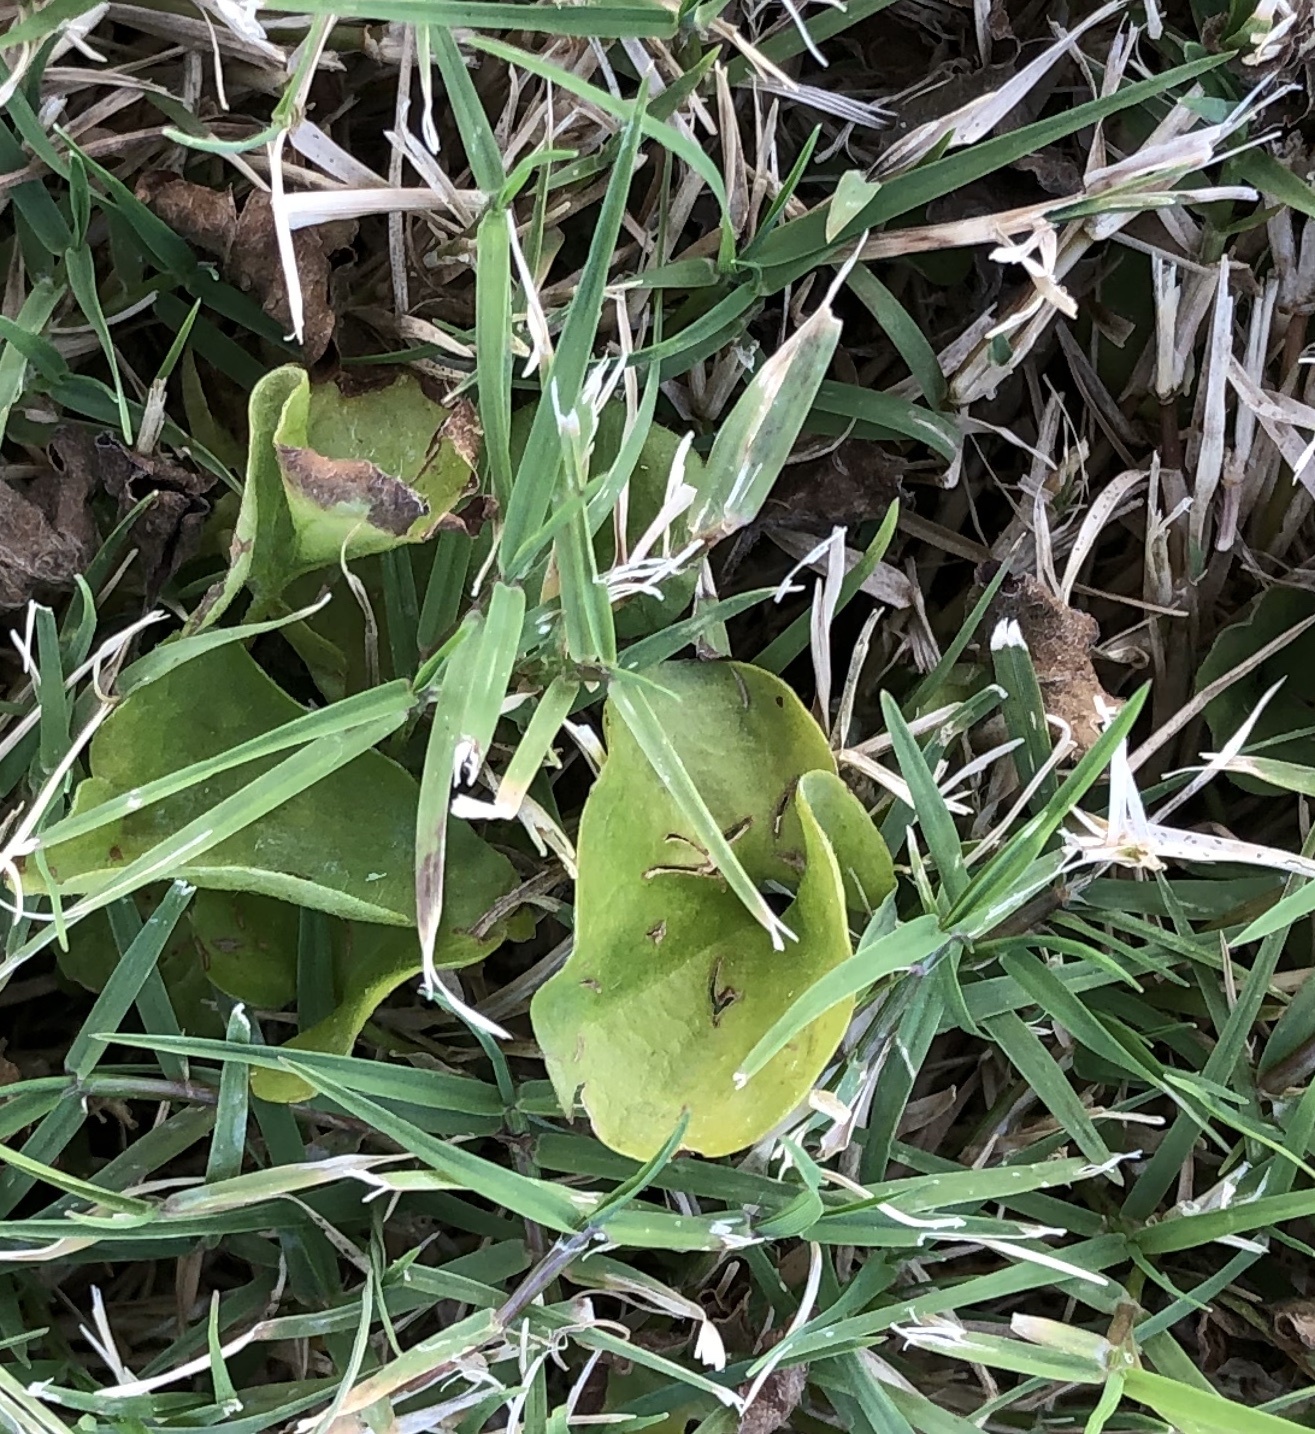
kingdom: Plantae
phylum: Tracheophyta
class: Magnoliopsida
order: Solanales
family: Convolvulaceae
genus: Dichondra
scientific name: Dichondra carolinensis
